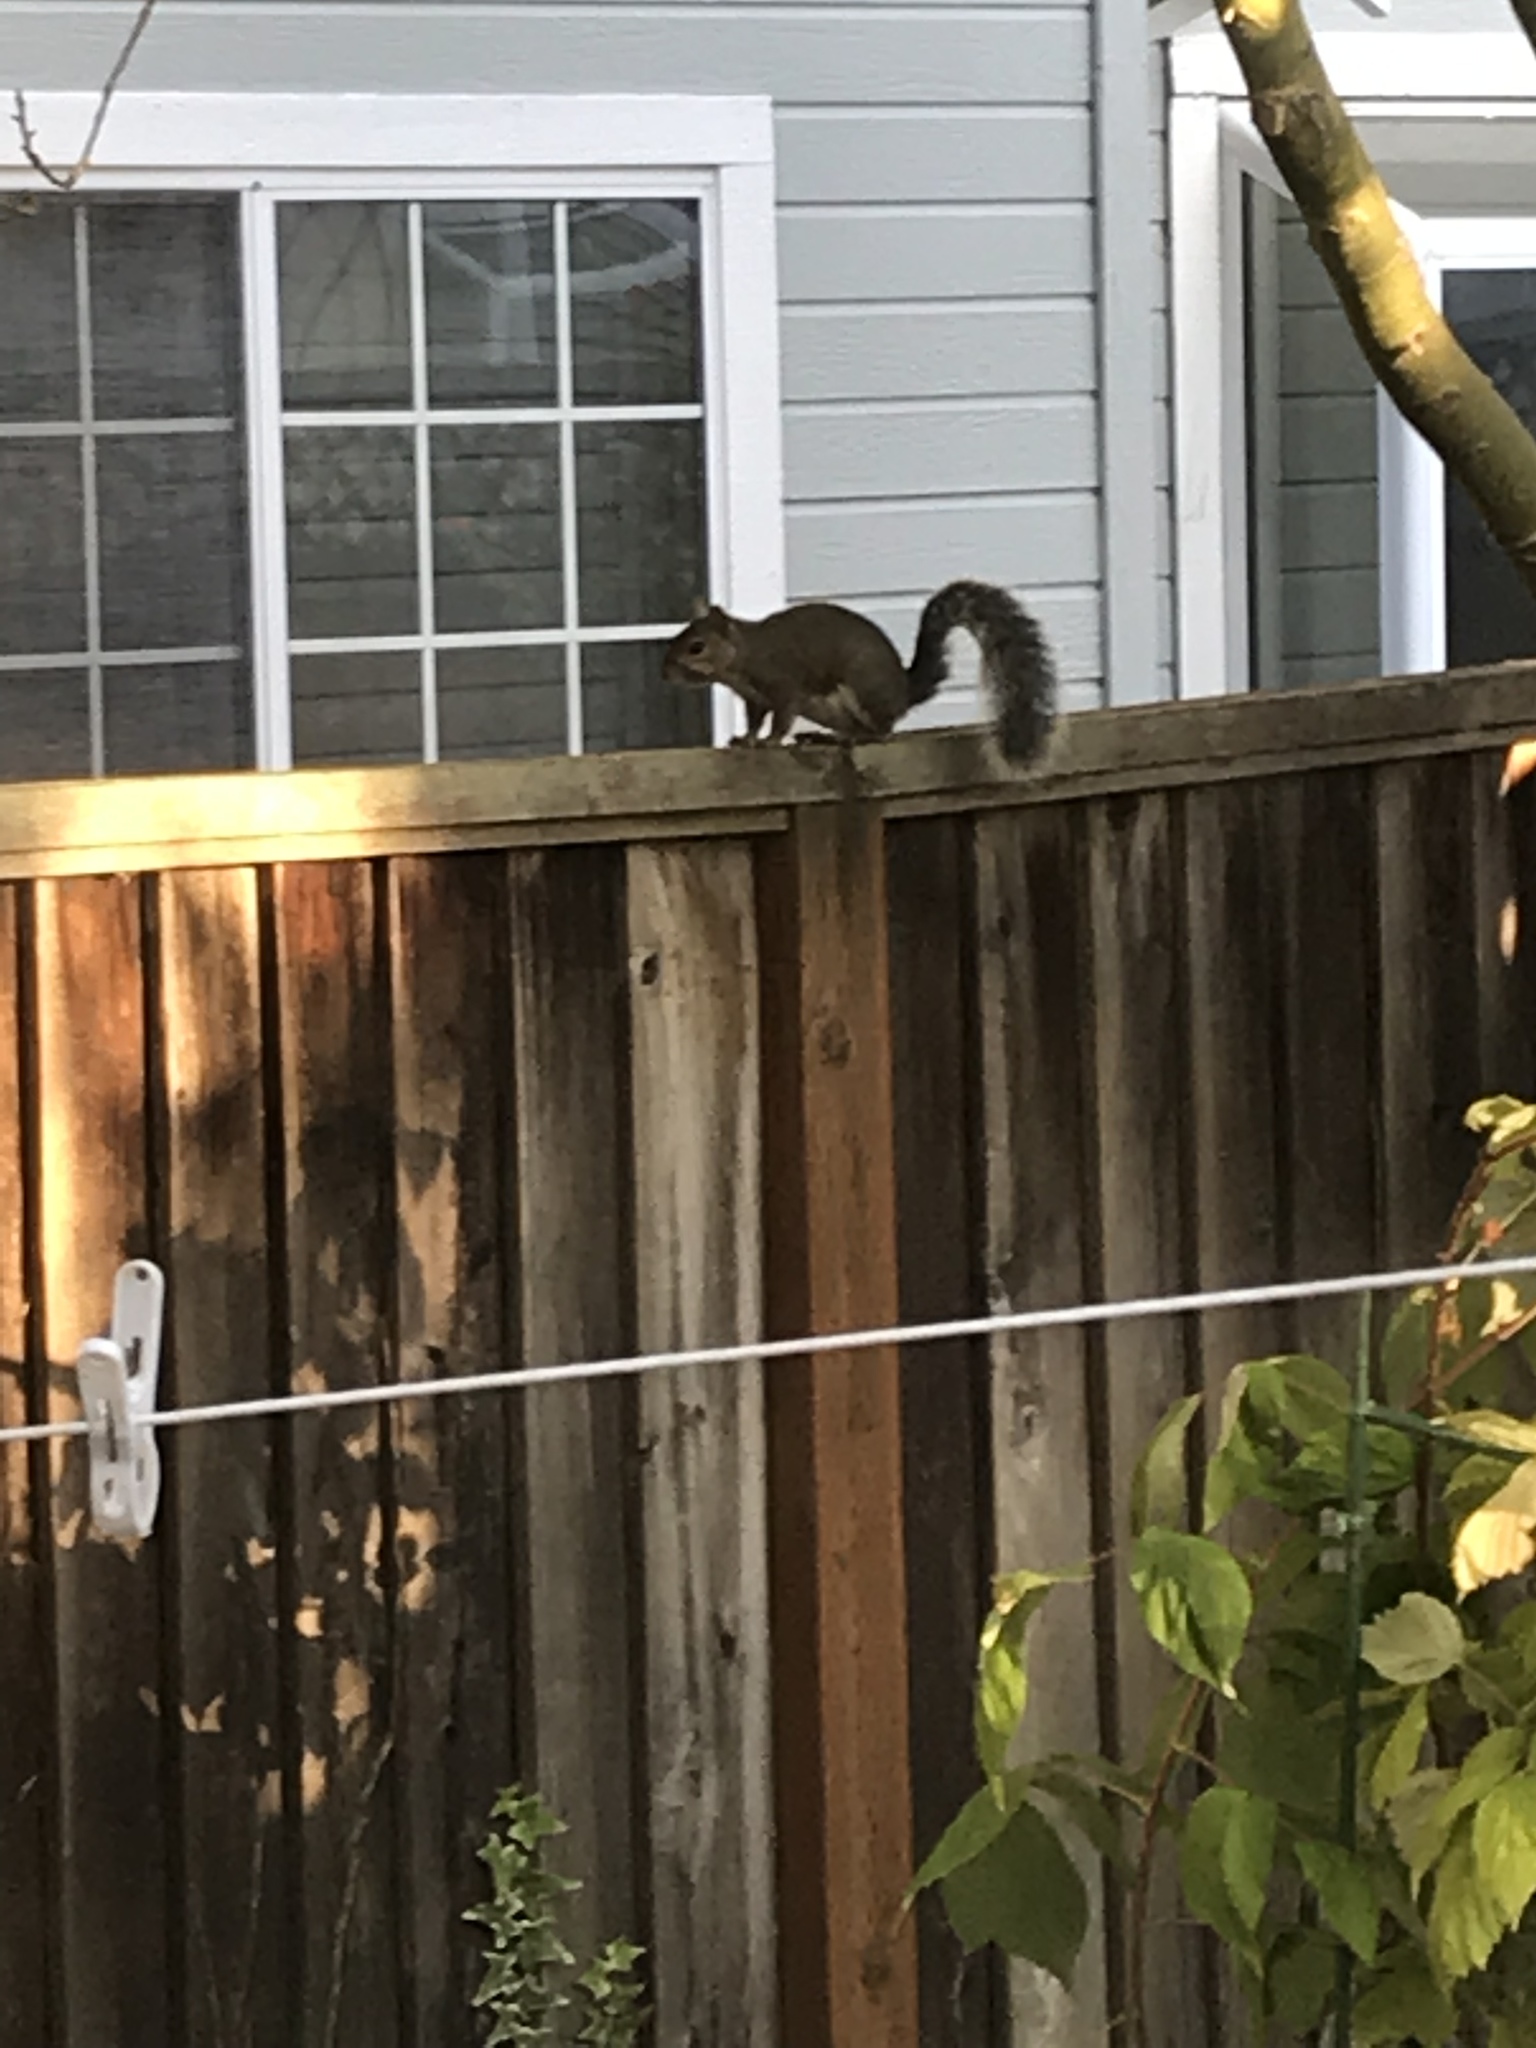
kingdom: Animalia
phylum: Chordata
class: Mammalia
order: Rodentia
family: Sciuridae
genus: Sciurus
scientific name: Sciurus carolinensis
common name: Eastern gray squirrel
